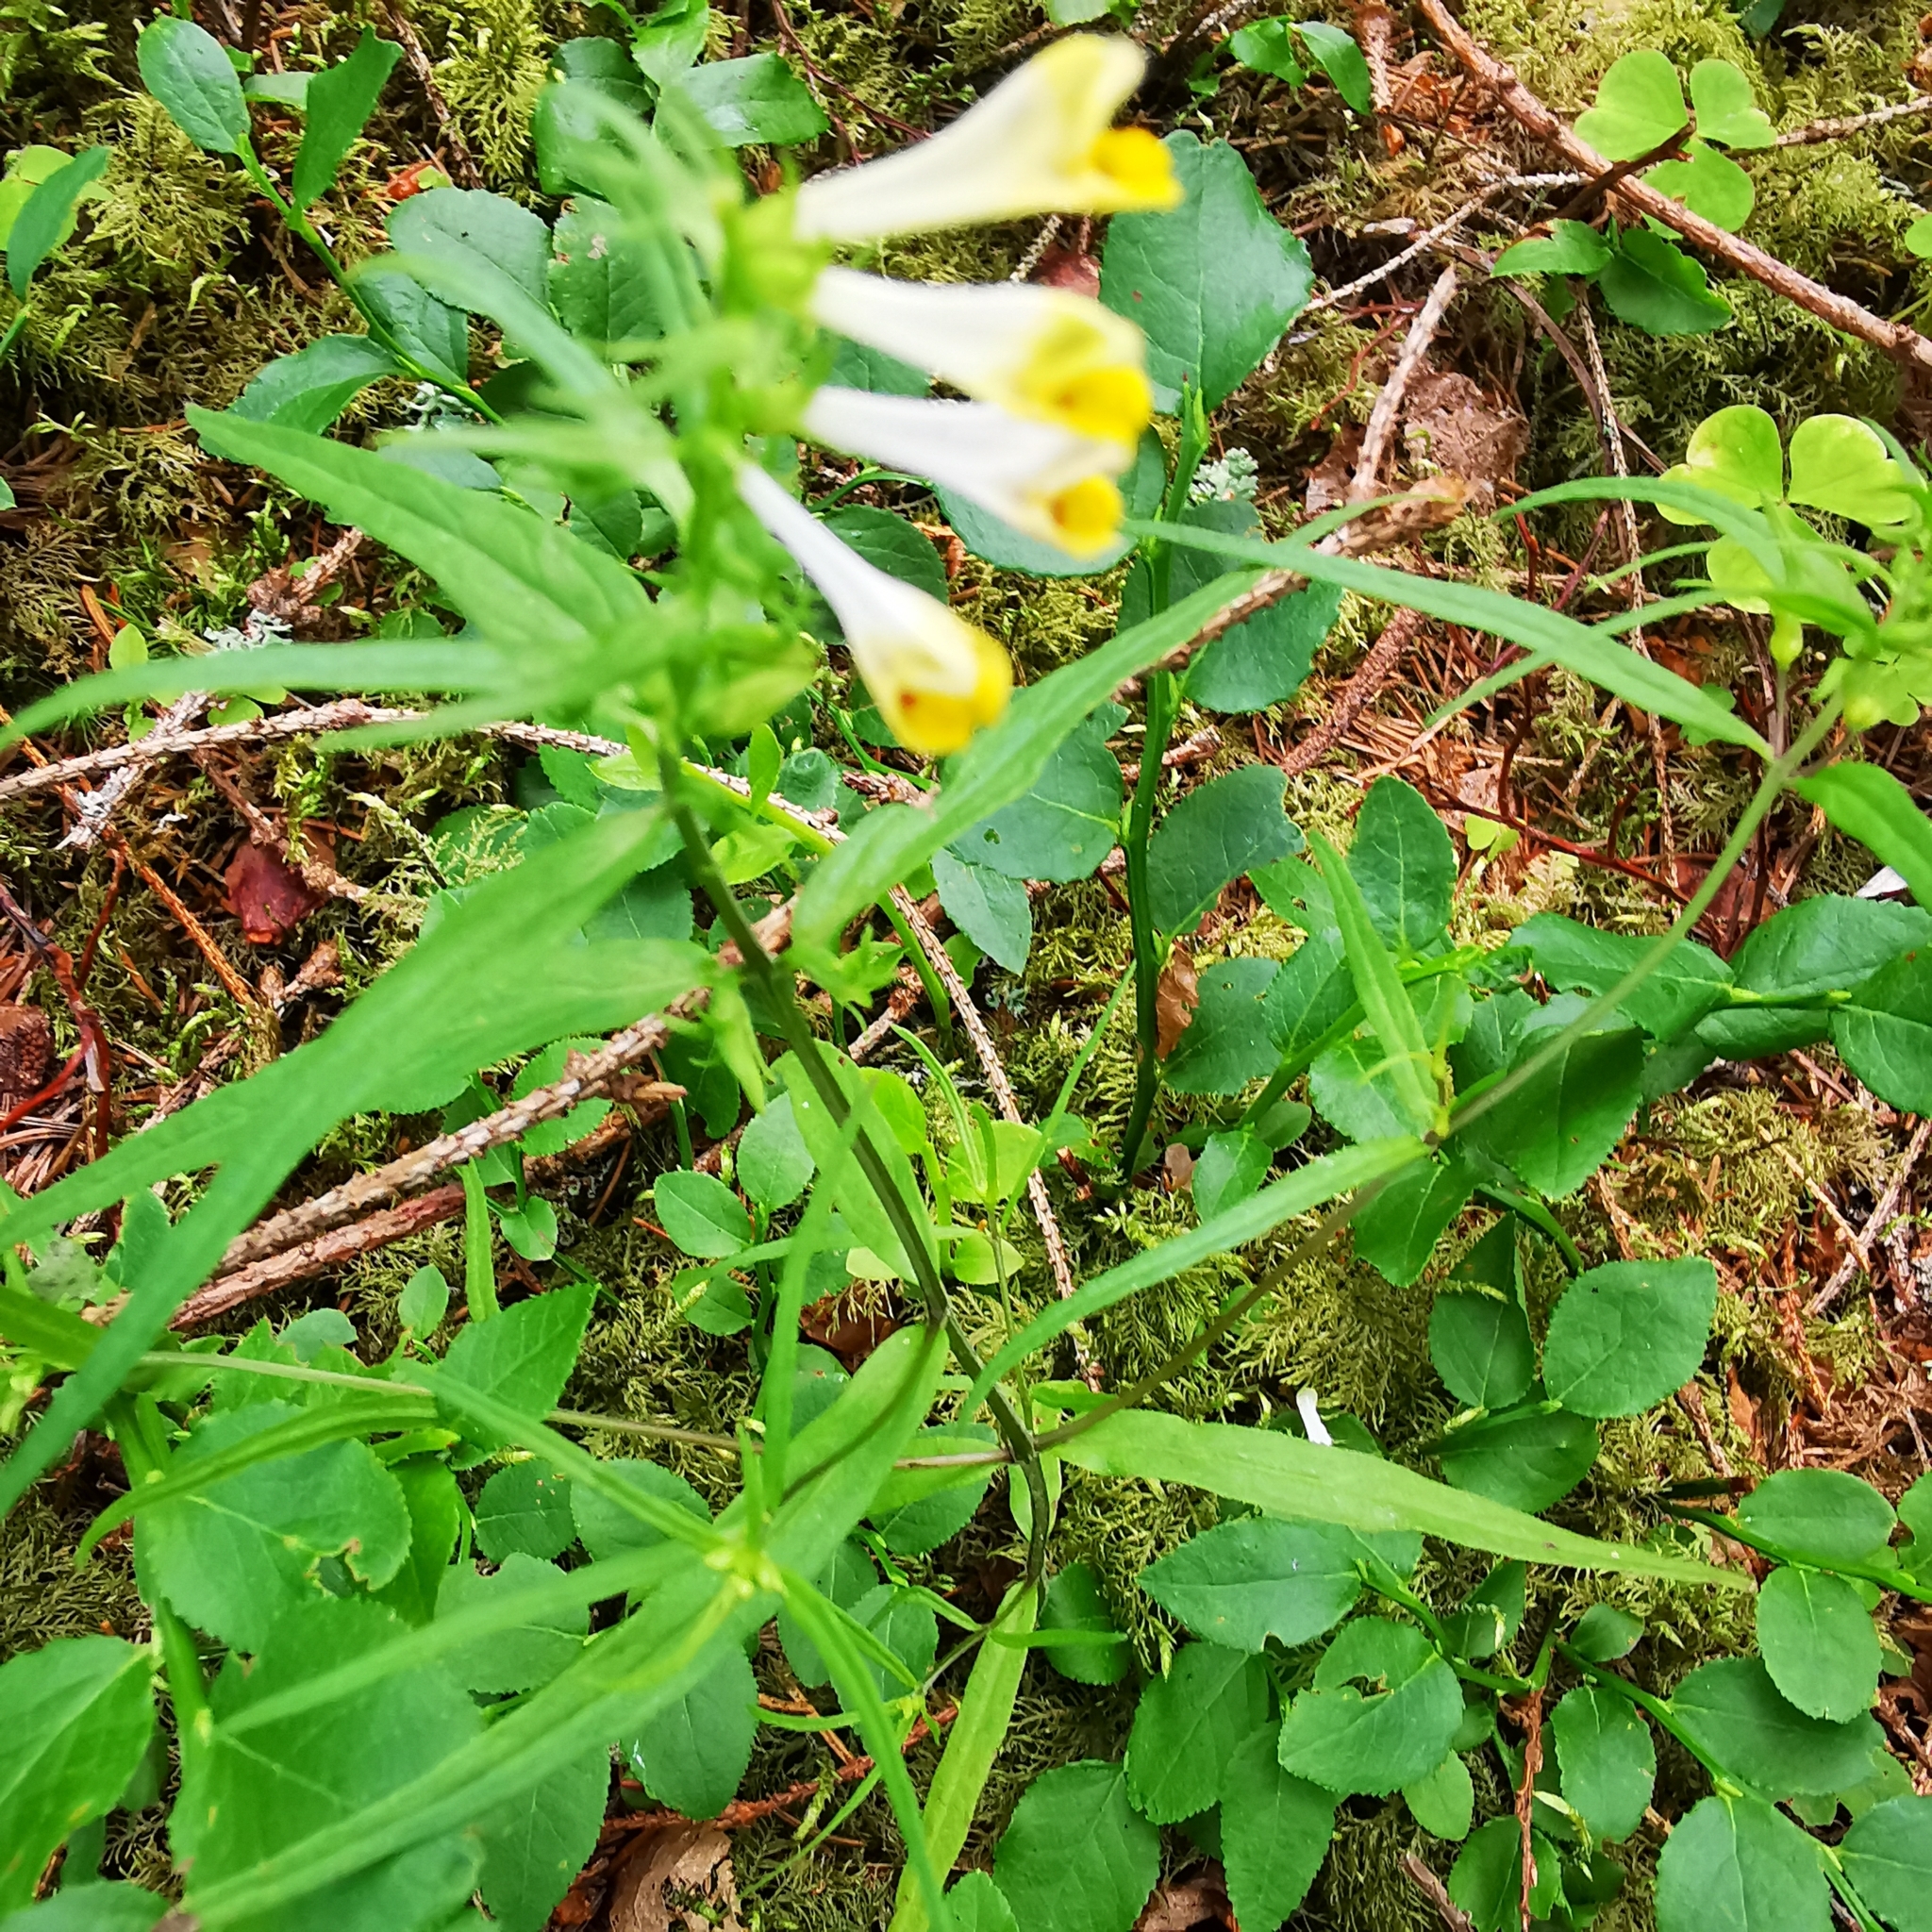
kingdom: Plantae
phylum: Tracheophyta
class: Magnoliopsida
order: Lamiales
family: Orobanchaceae
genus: Melampyrum
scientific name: Melampyrum pratense
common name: Common cow-wheat
